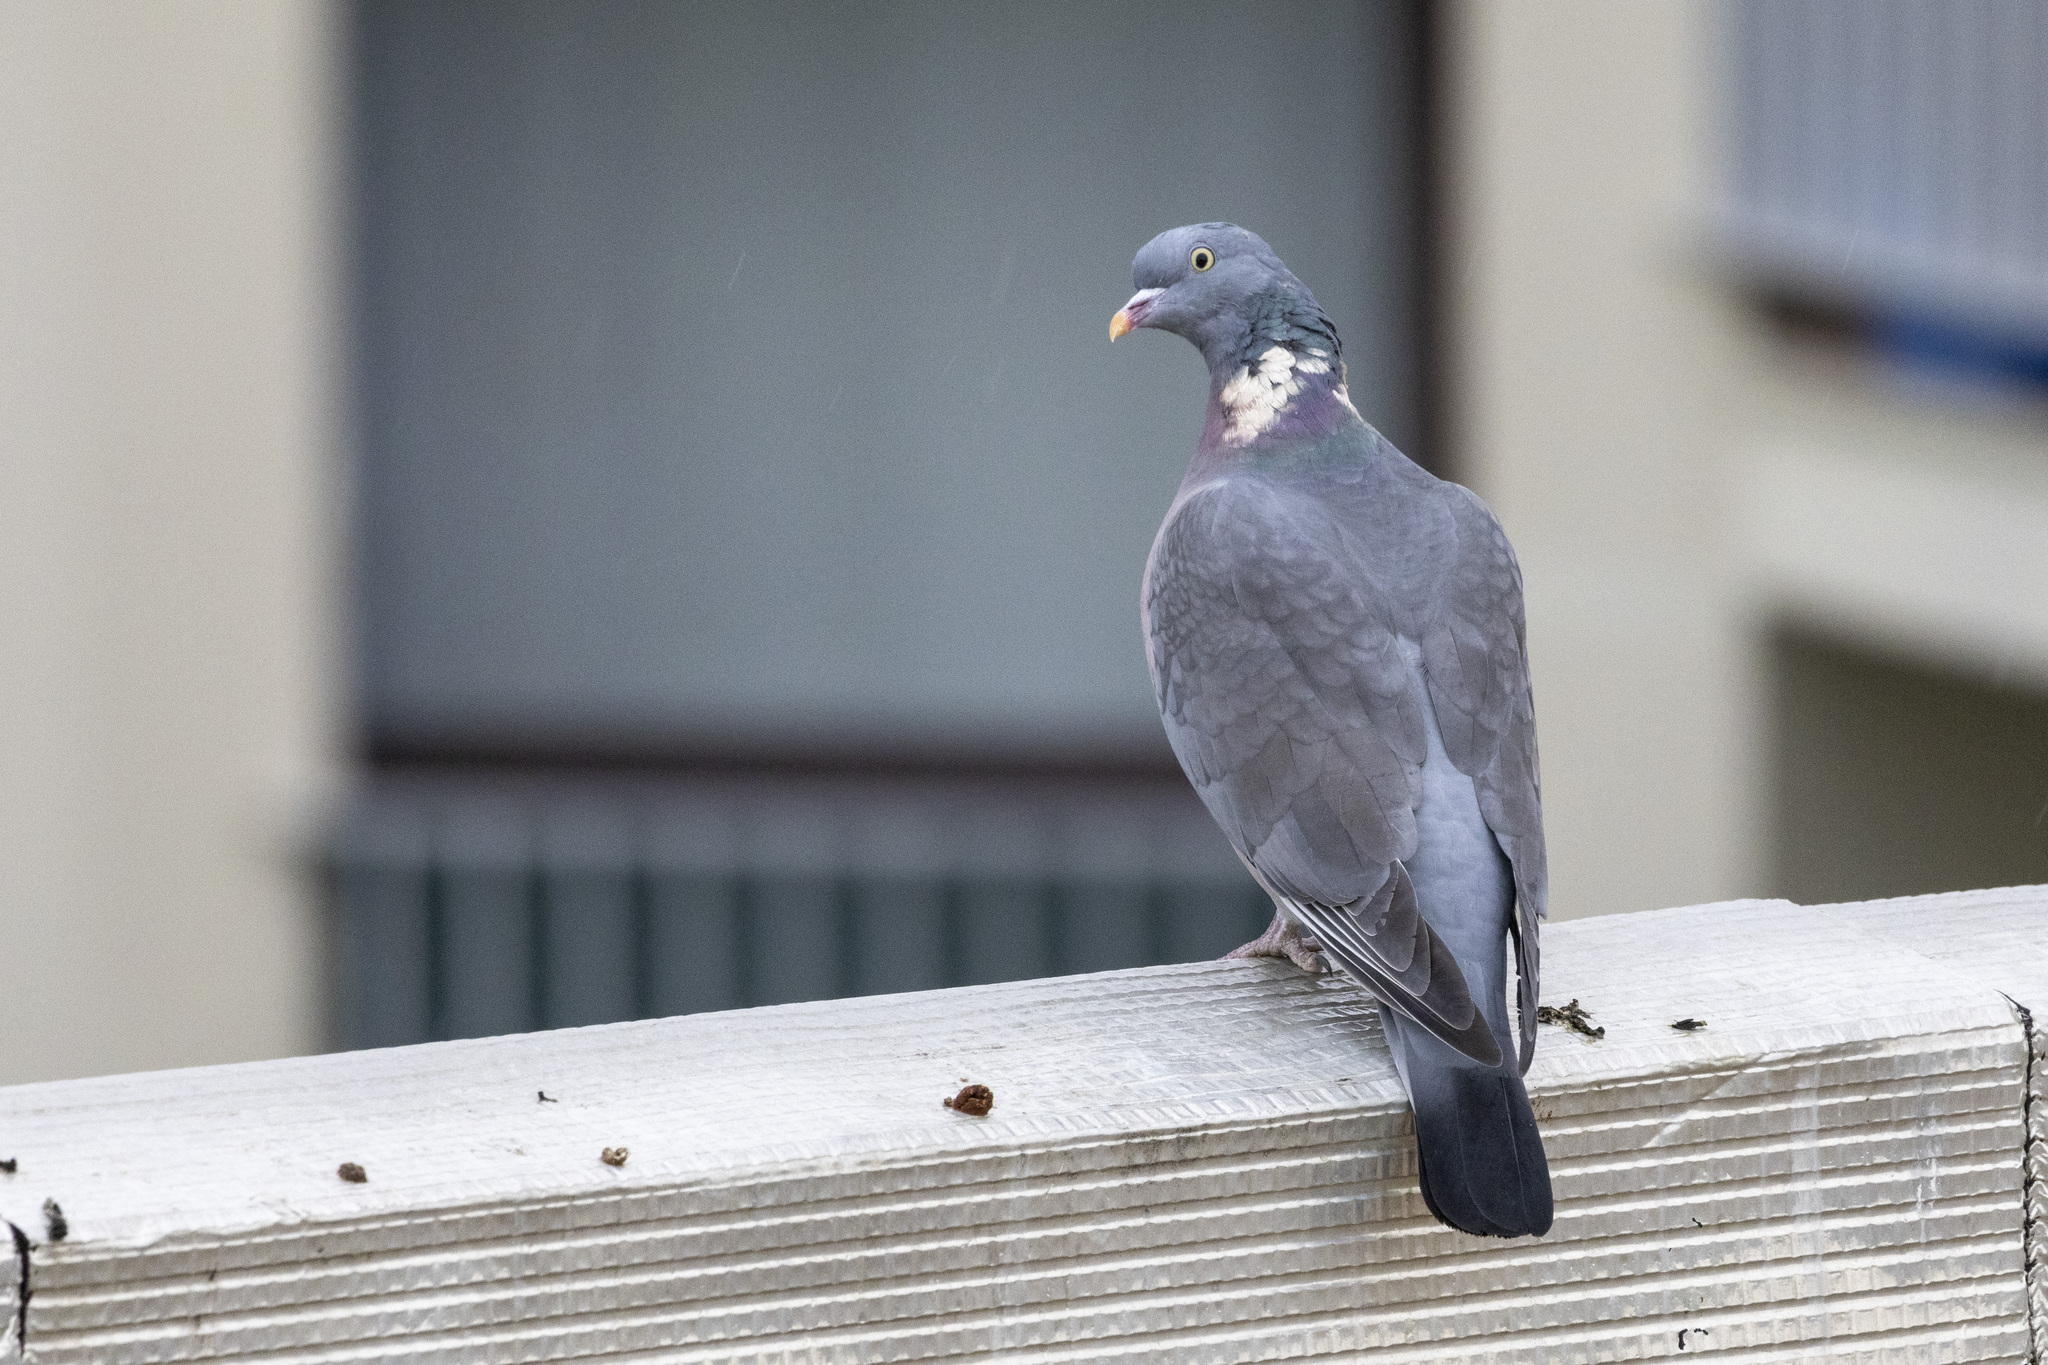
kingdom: Animalia
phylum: Chordata
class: Aves
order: Columbiformes
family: Columbidae
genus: Columba
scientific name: Columba palumbus
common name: Common wood pigeon
